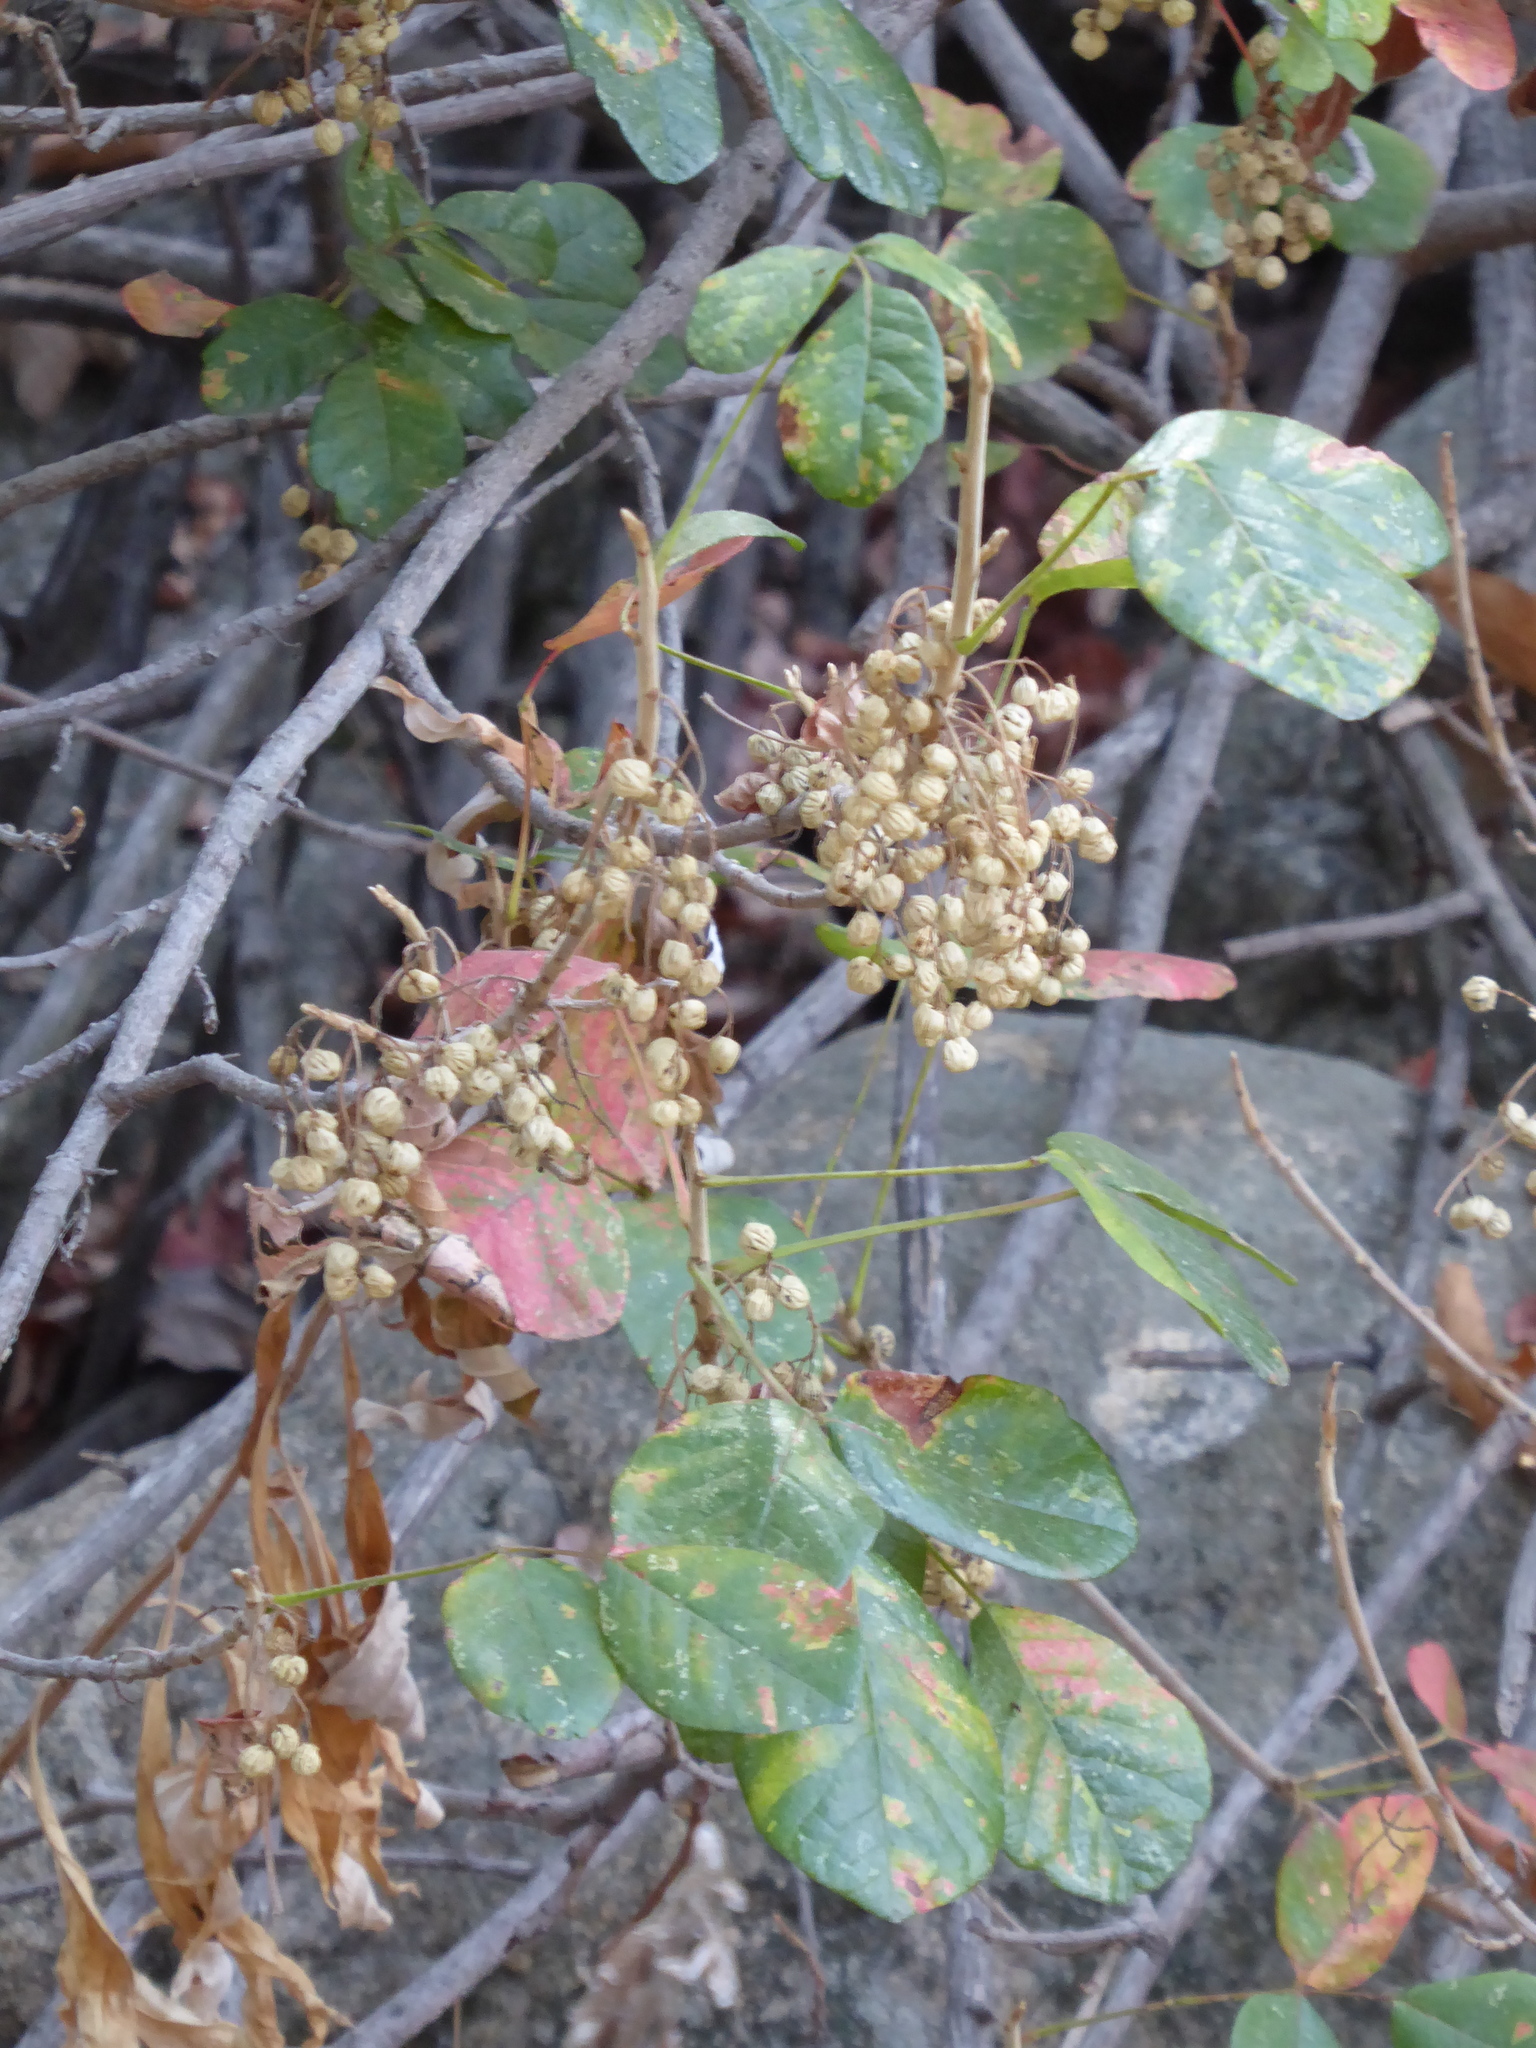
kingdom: Plantae
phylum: Tracheophyta
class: Magnoliopsida
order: Sapindales
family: Anacardiaceae
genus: Toxicodendron
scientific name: Toxicodendron diversilobum
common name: Pacific poison-oak
